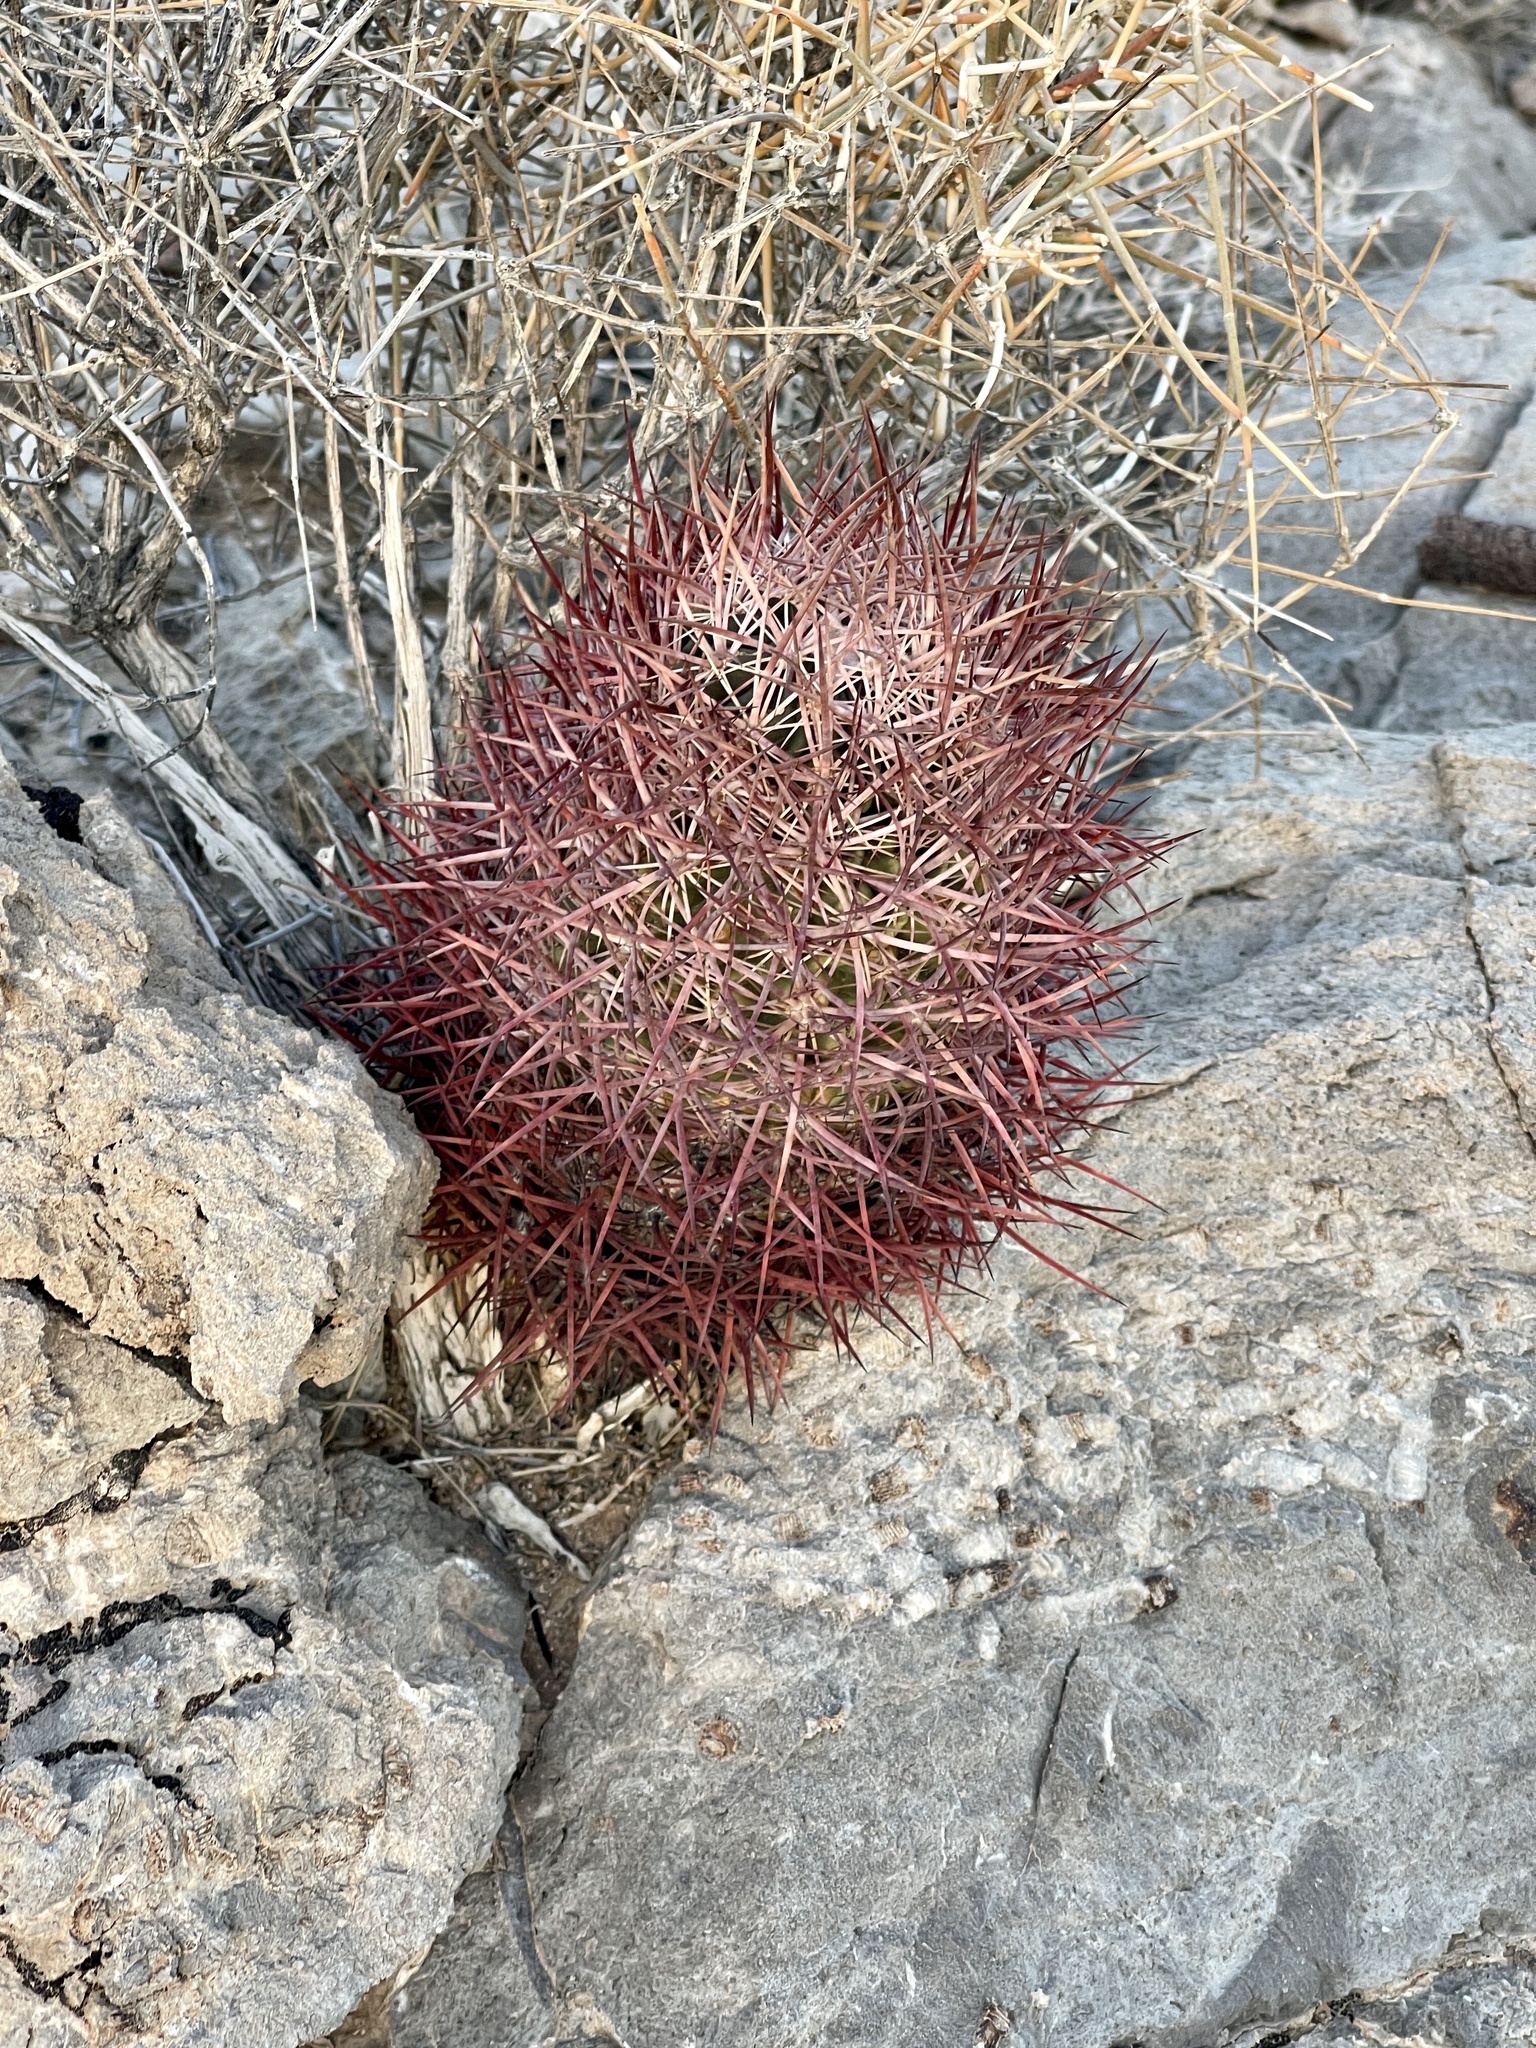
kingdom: Plantae
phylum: Tracheophyta
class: Magnoliopsida
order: Caryophyllales
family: Cactaceae
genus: Sclerocactus
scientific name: Sclerocactus johnsonii
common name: Eight-spine fishhook cactus
